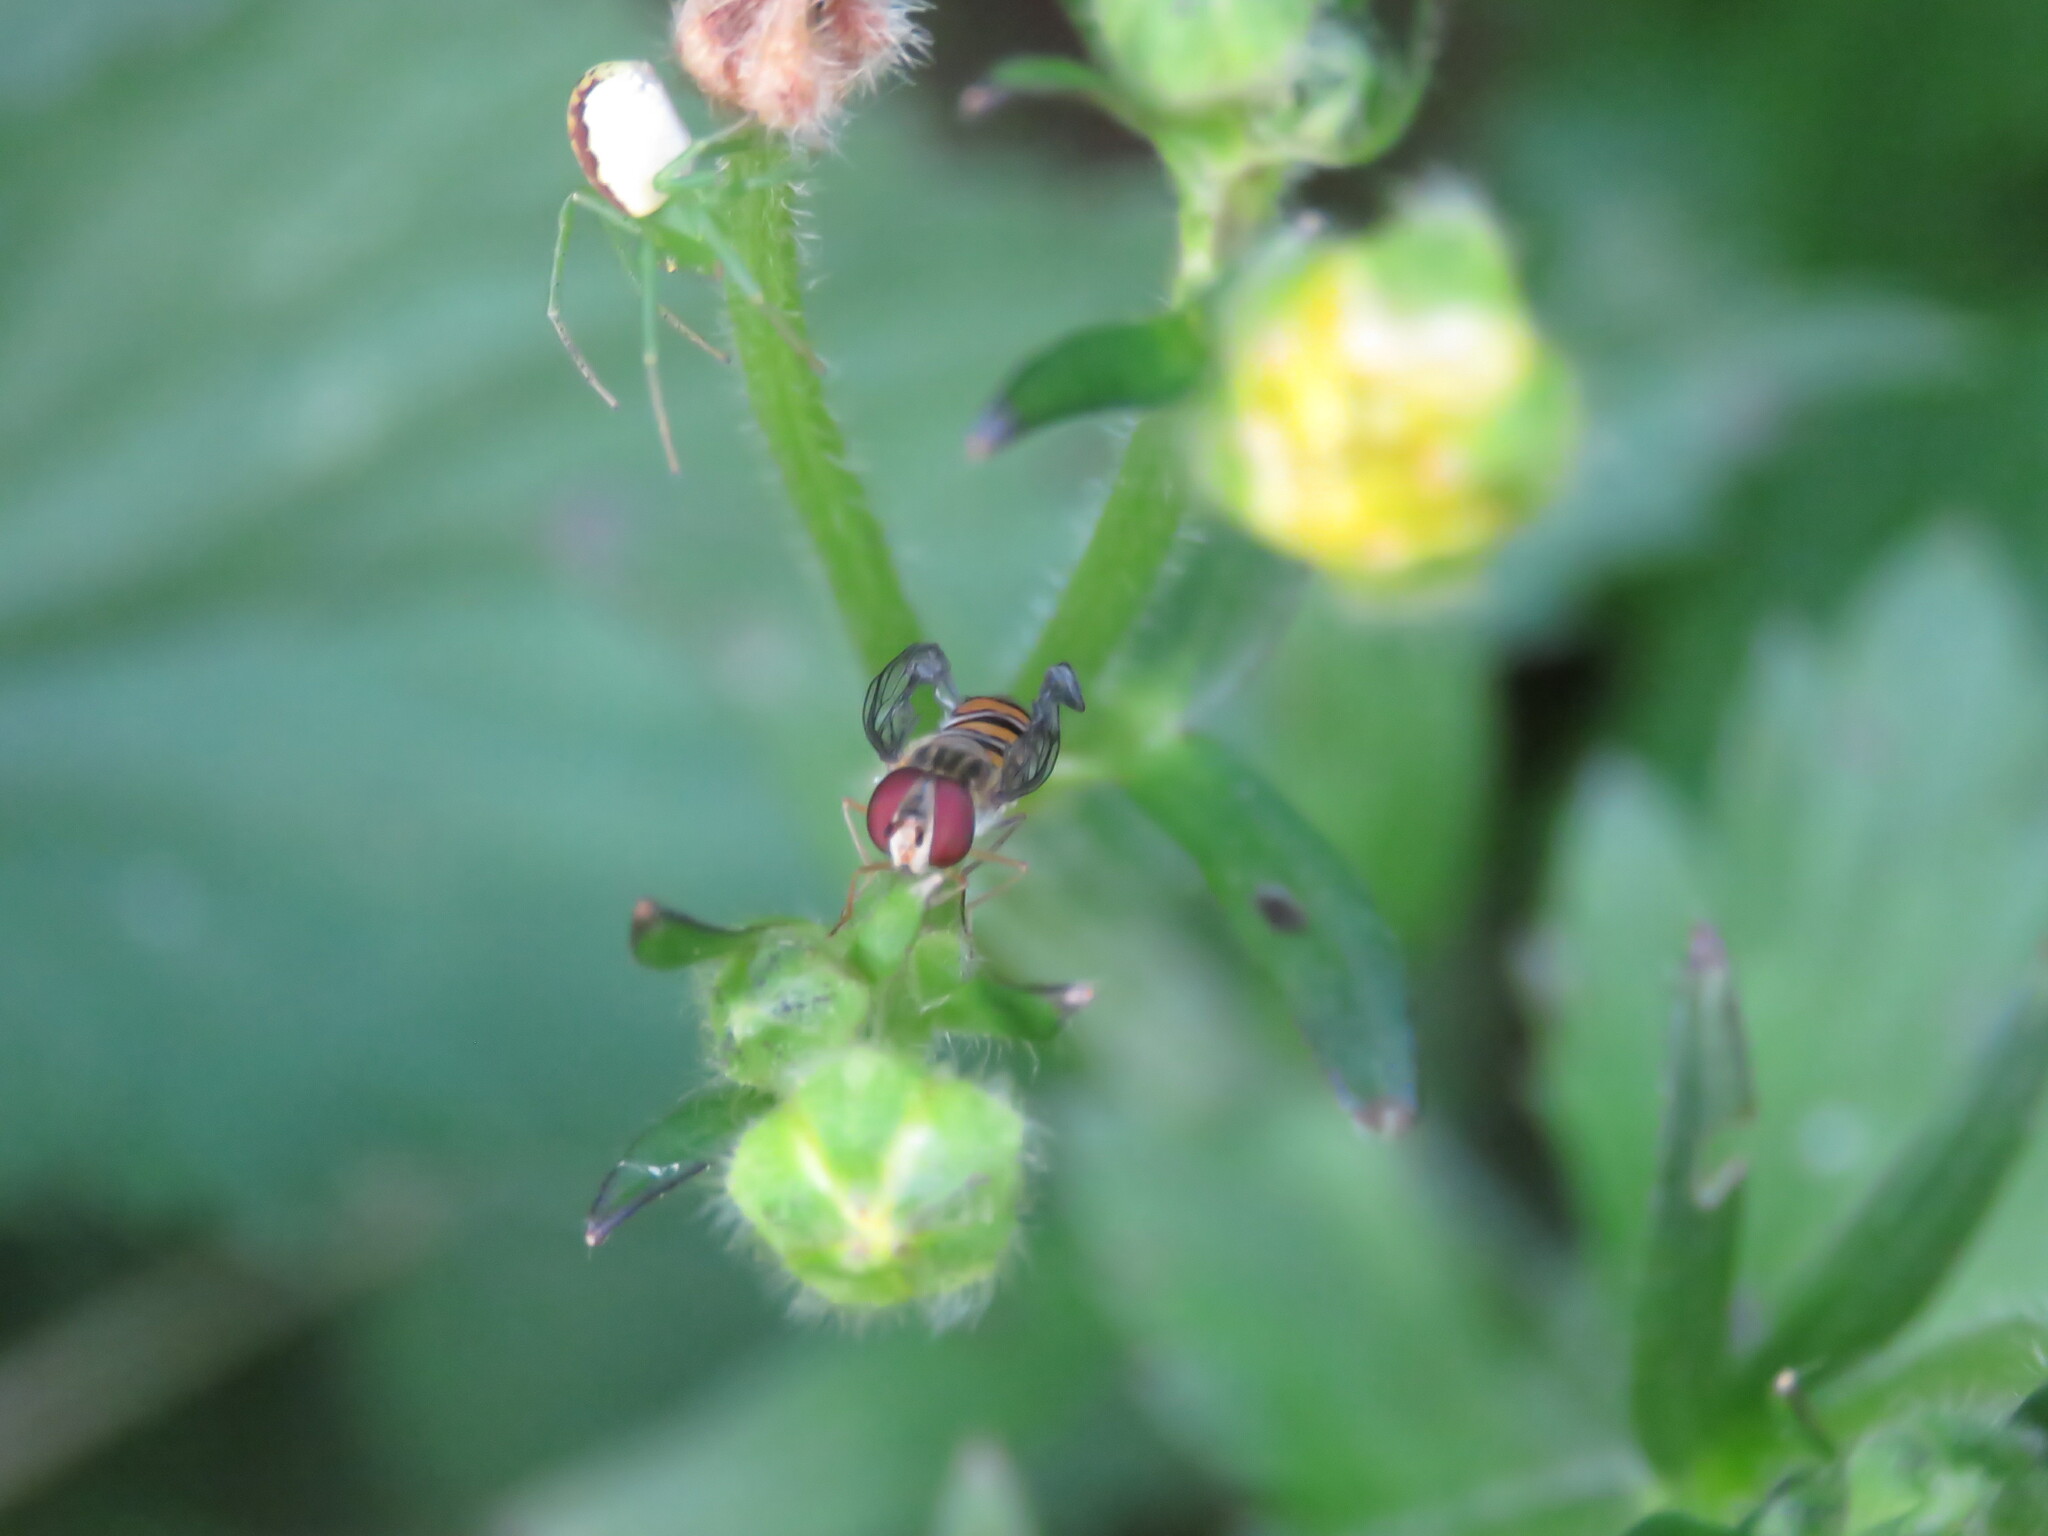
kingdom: Animalia
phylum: Arthropoda
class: Insecta
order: Diptera
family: Syrphidae
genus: Episyrphus
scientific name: Episyrphus balteatus
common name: Marmalade hoverfly
